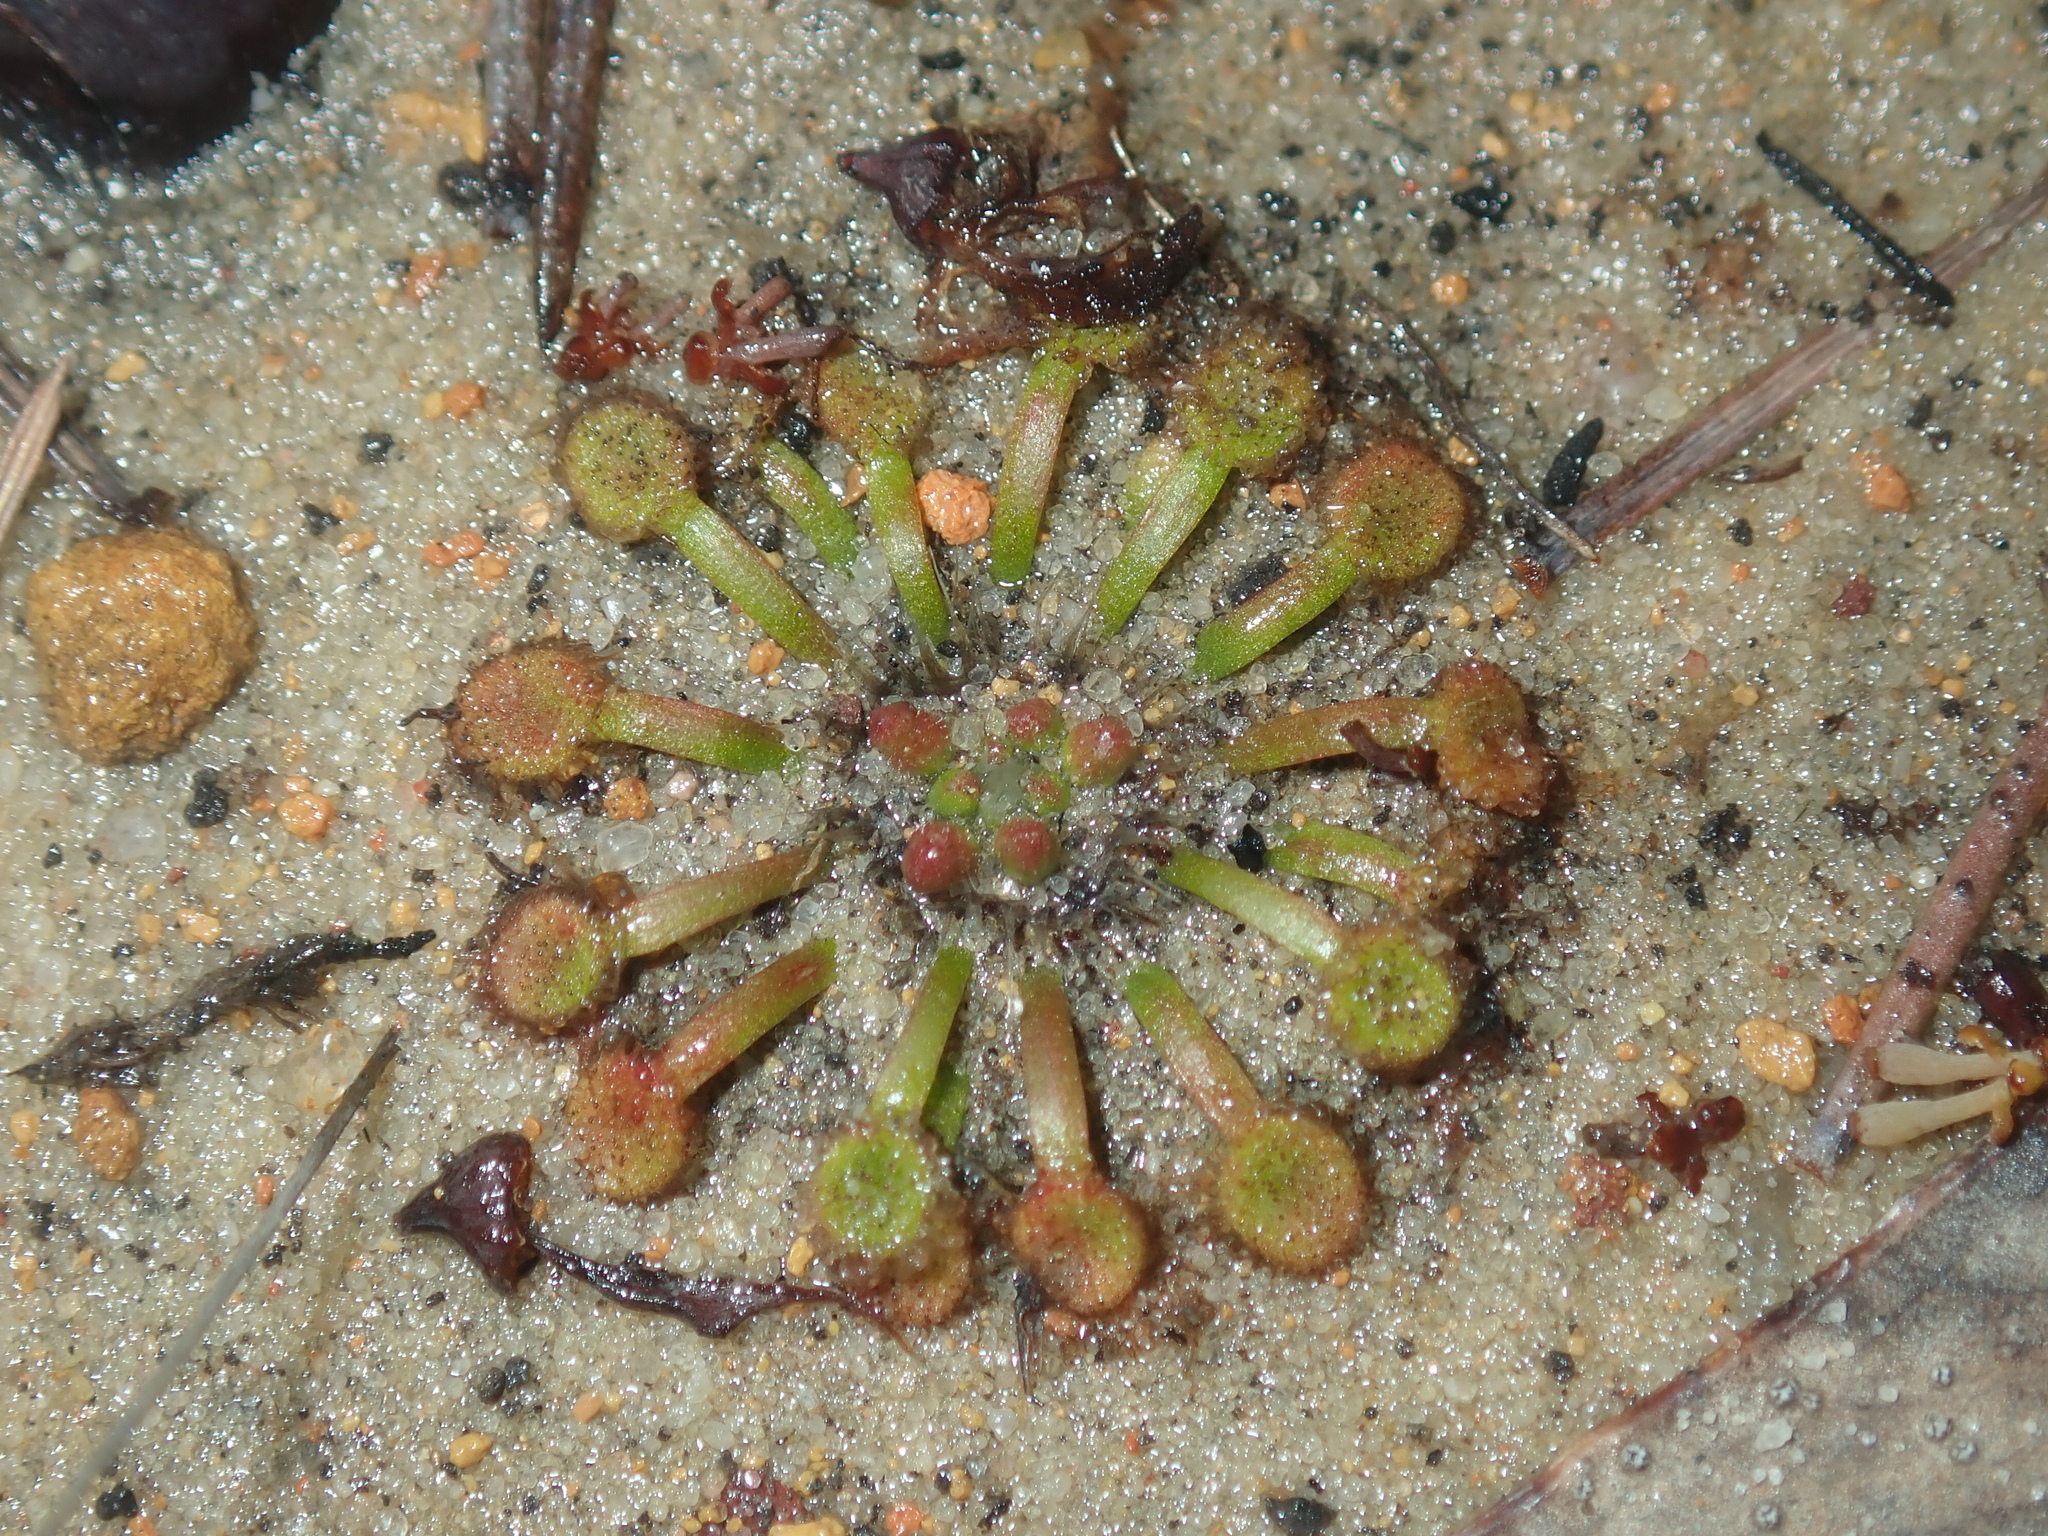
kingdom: Plantae
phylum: Tracheophyta
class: Magnoliopsida
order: Caryophyllales
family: Droseraceae
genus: Drosera
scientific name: Drosera spilos
